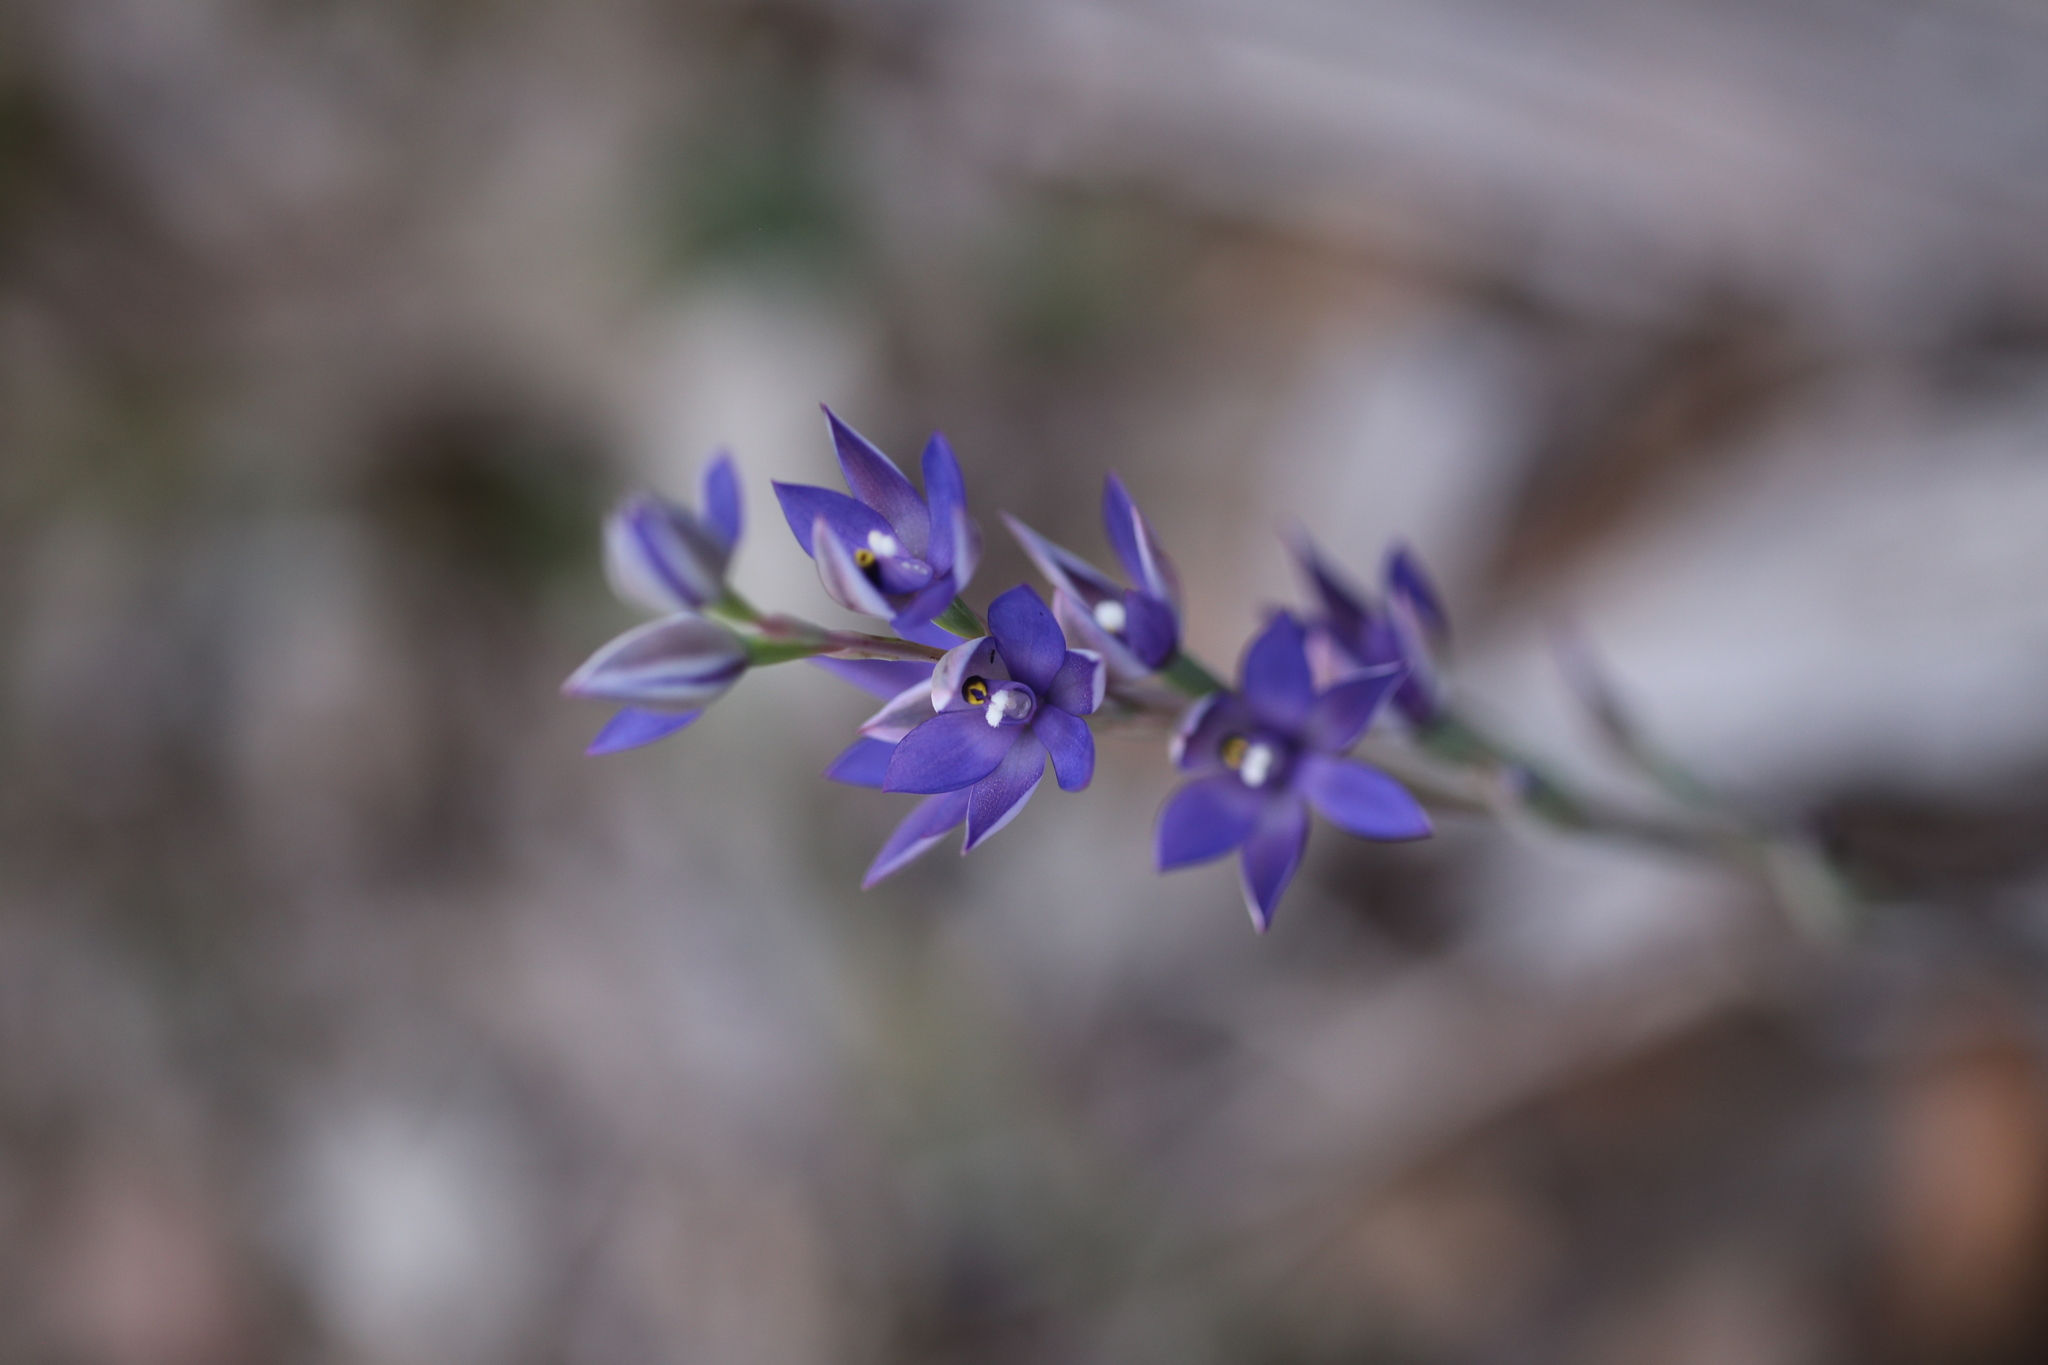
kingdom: Plantae
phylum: Tracheophyta
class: Liliopsida
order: Asparagales
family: Orchidaceae
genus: Thelymitra
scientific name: Thelymitra macrophylla
